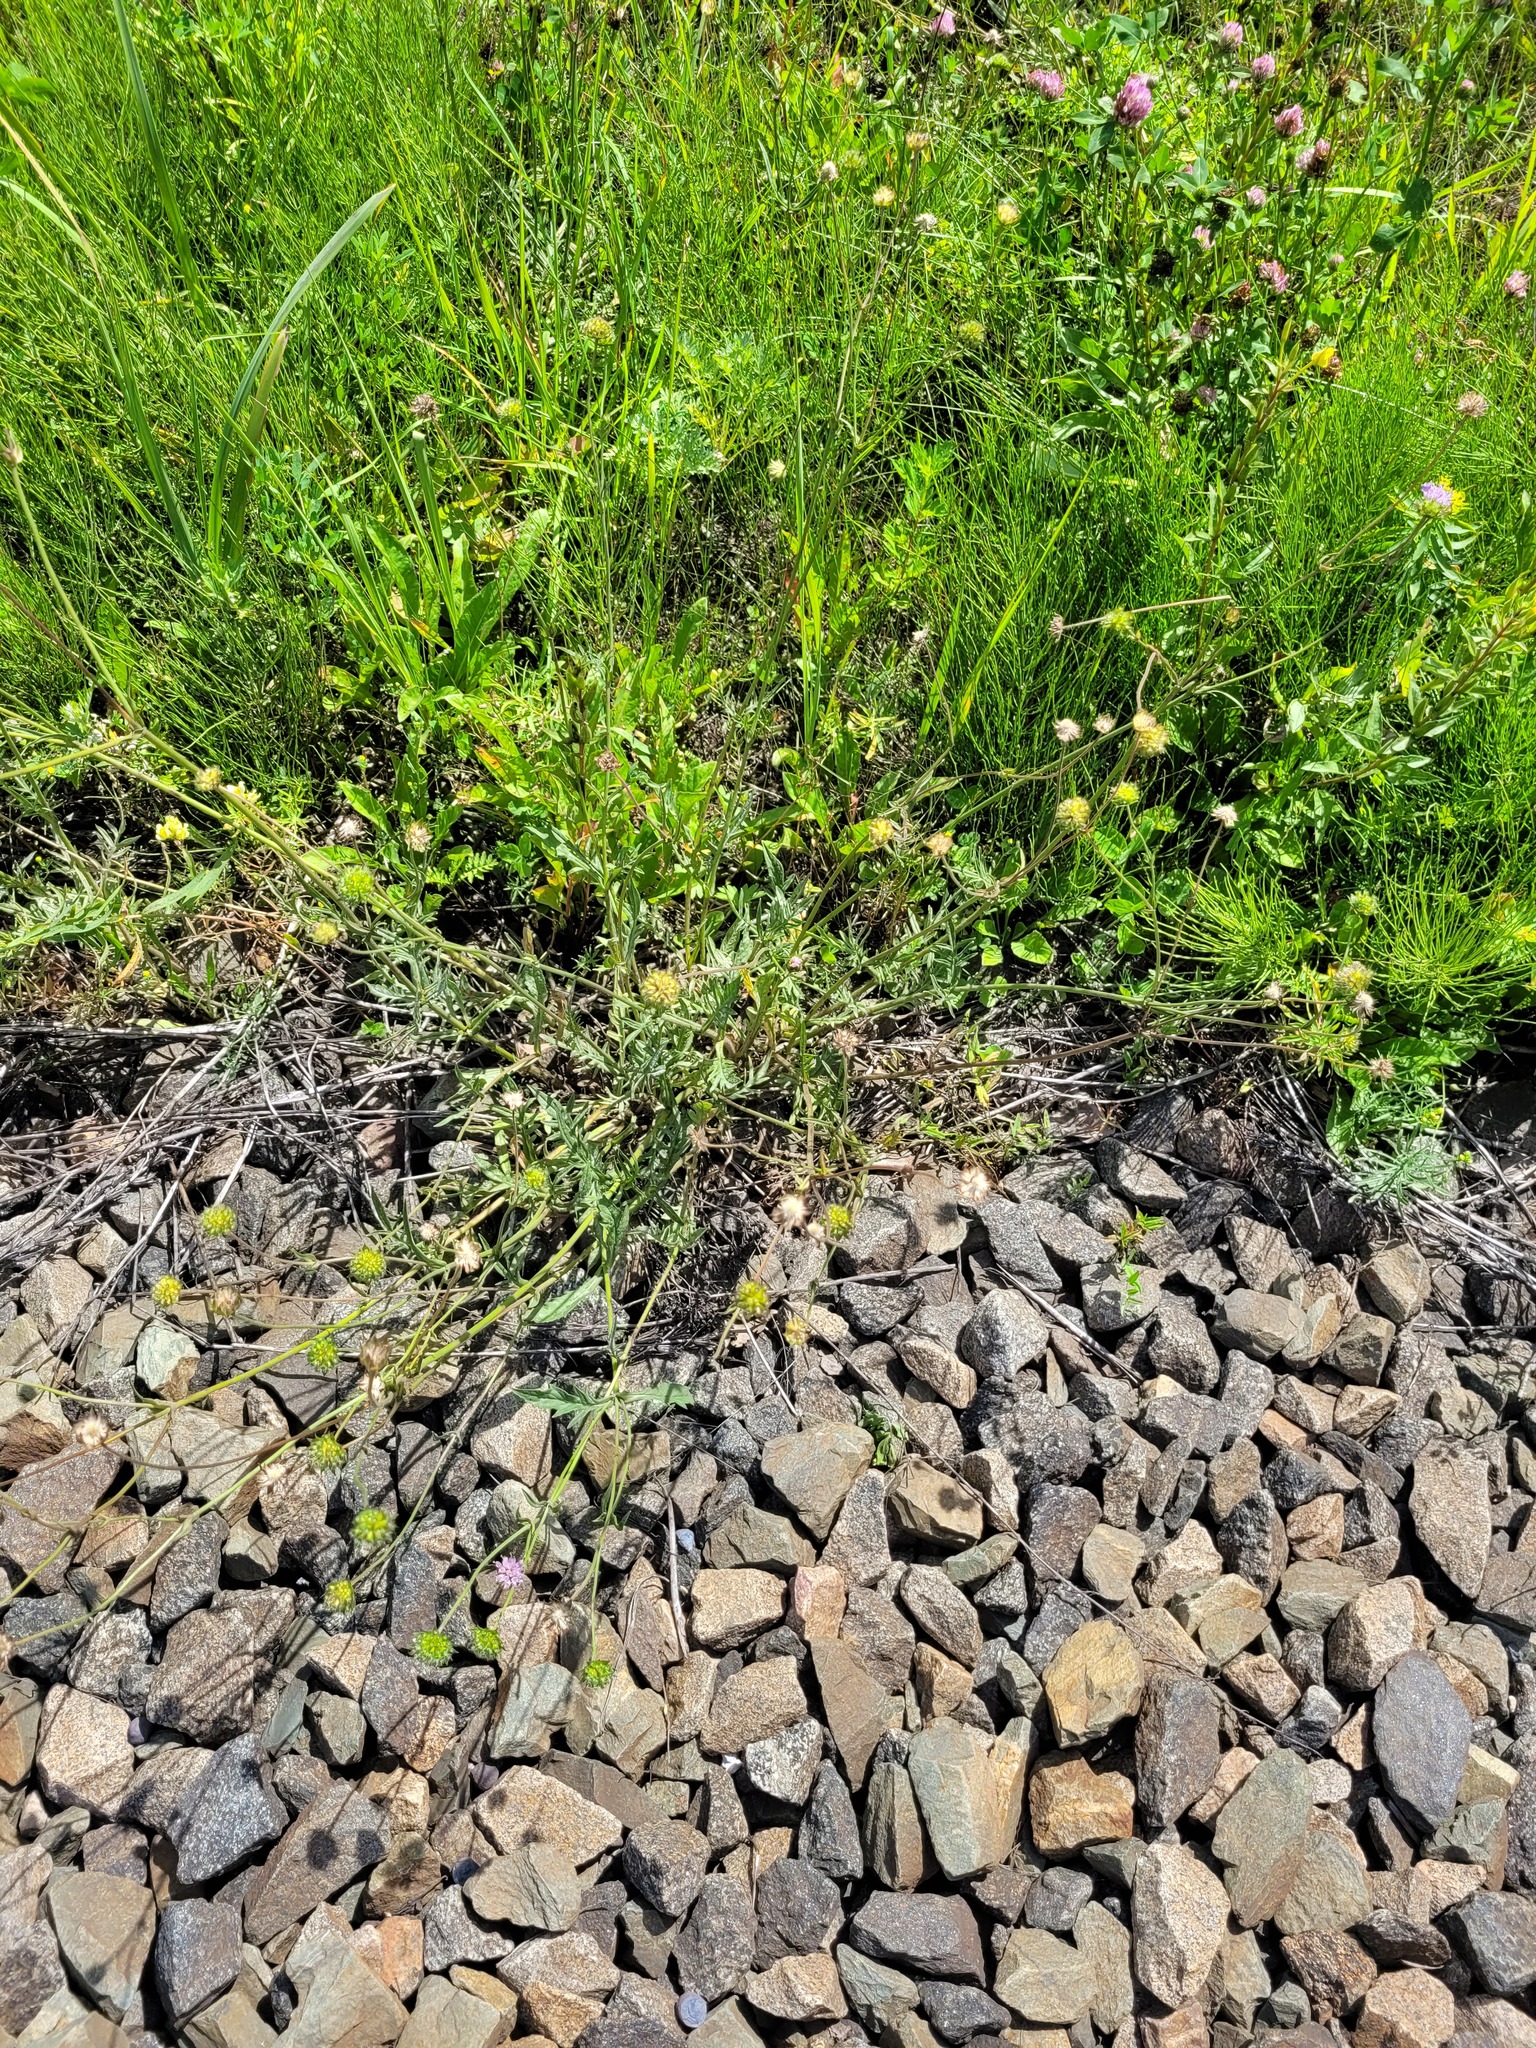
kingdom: Plantae
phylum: Tracheophyta
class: Magnoliopsida
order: Dipsacales
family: Caprifoliaceae
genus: Knautia
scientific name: Knautia arvensis
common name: Field scabiosa
